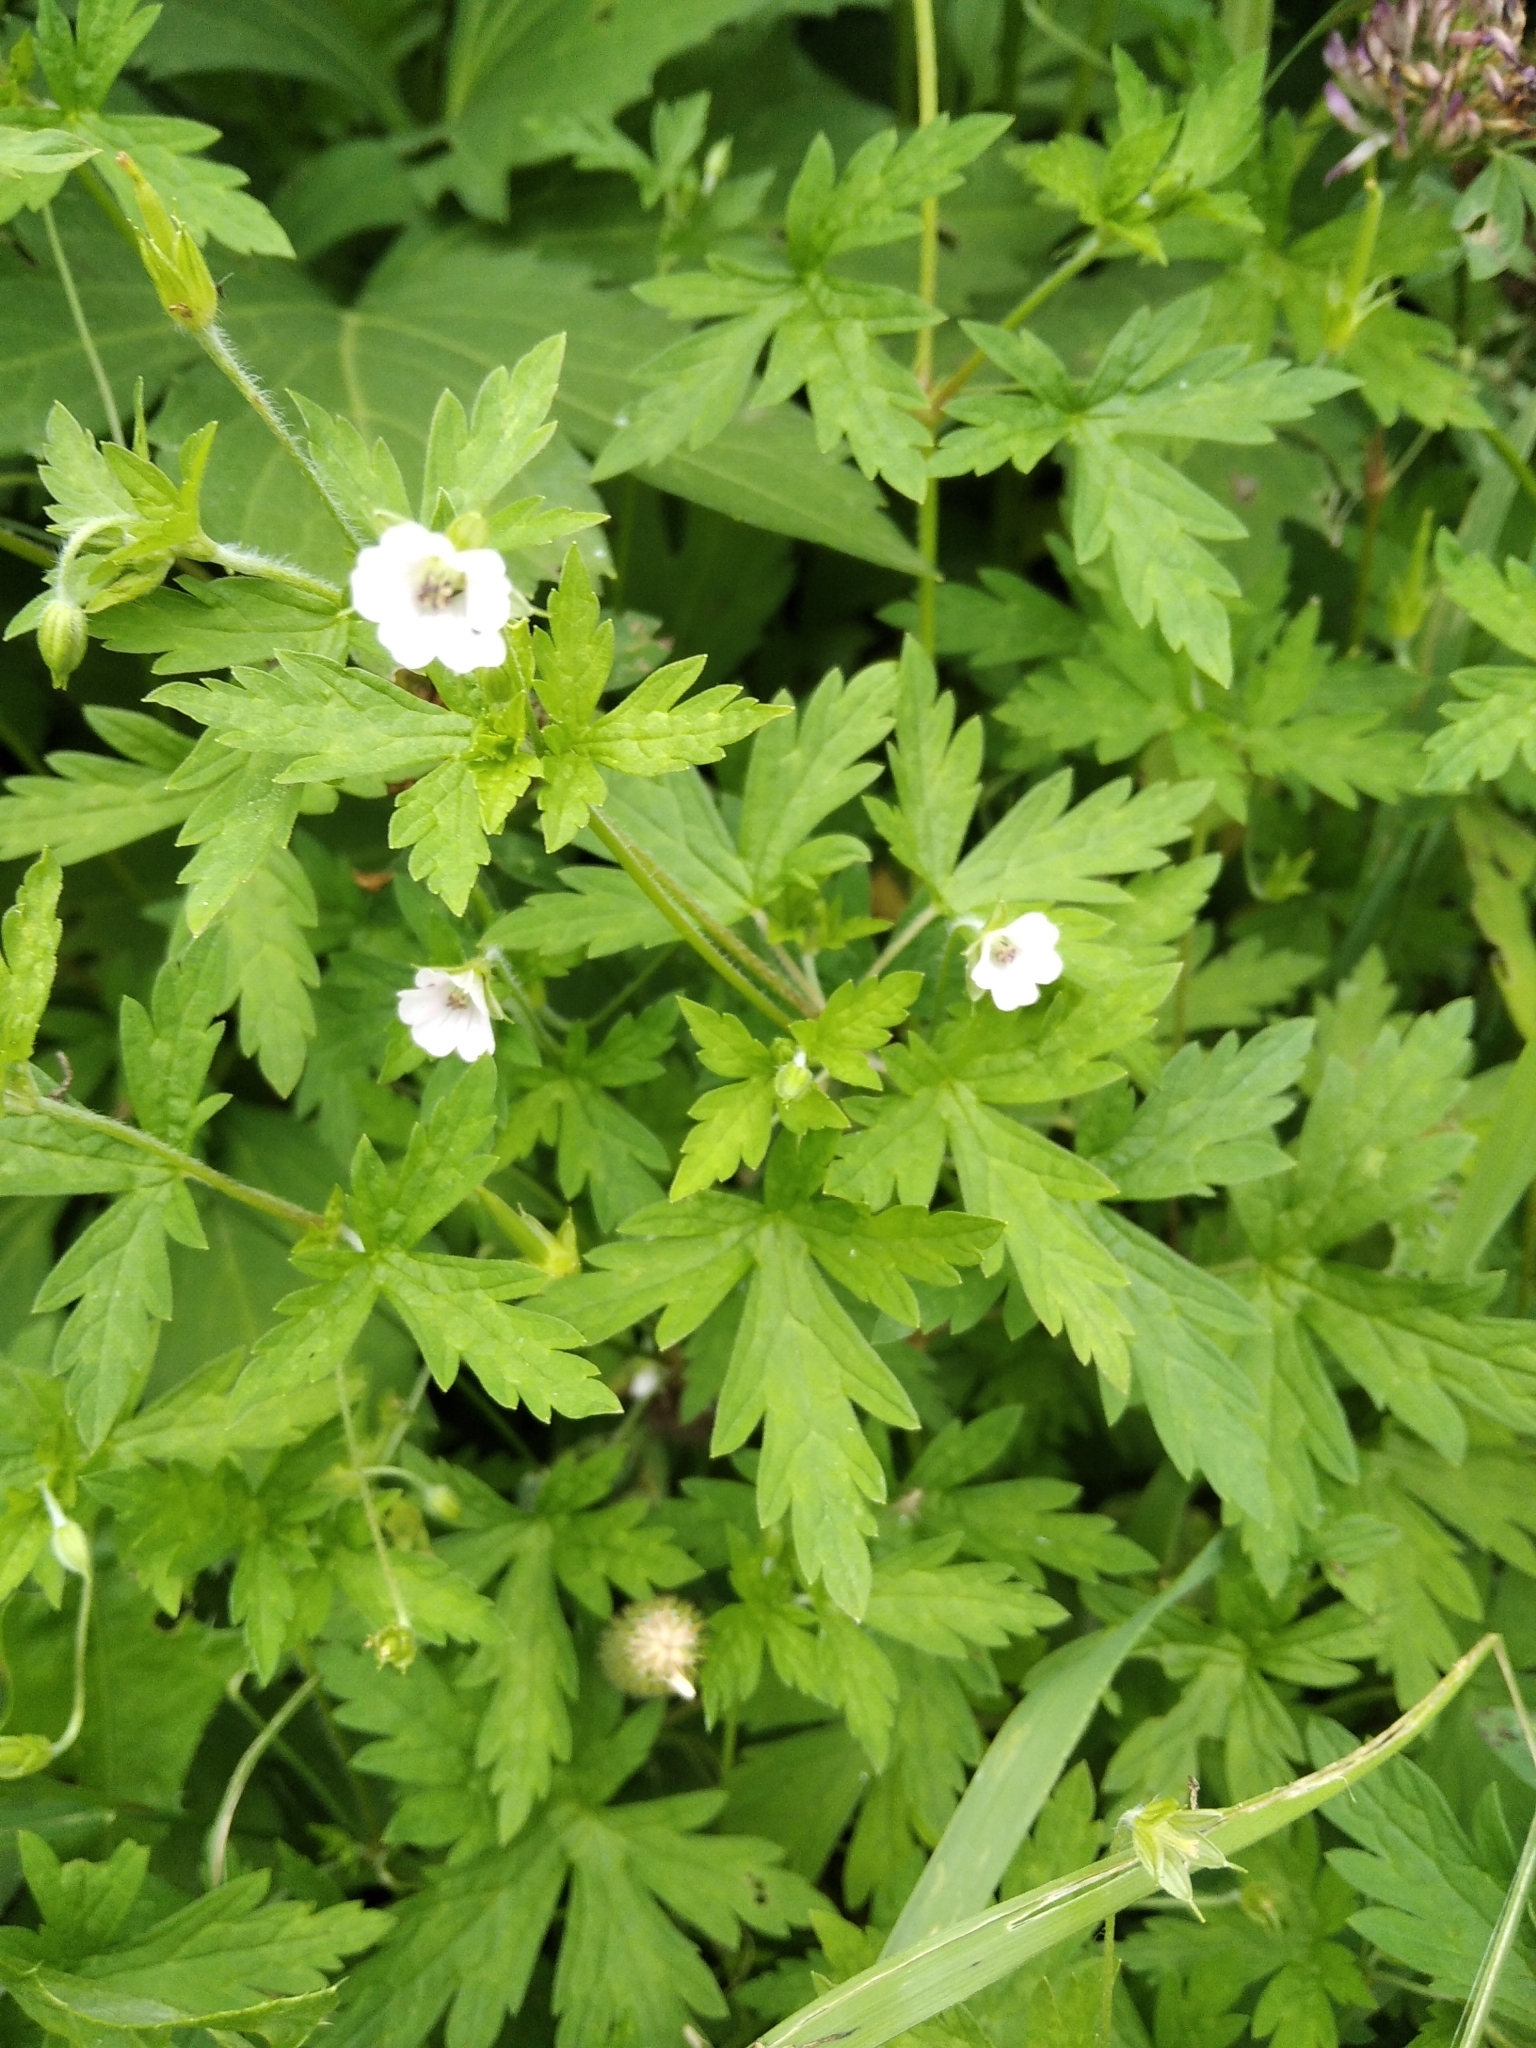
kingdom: Plantae
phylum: Tracheophyta
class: Magnoliopsida
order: Geraniales
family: Geraniaceae
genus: Geranium
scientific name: Geranium sibiricum
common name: Siberian crane's-bill
